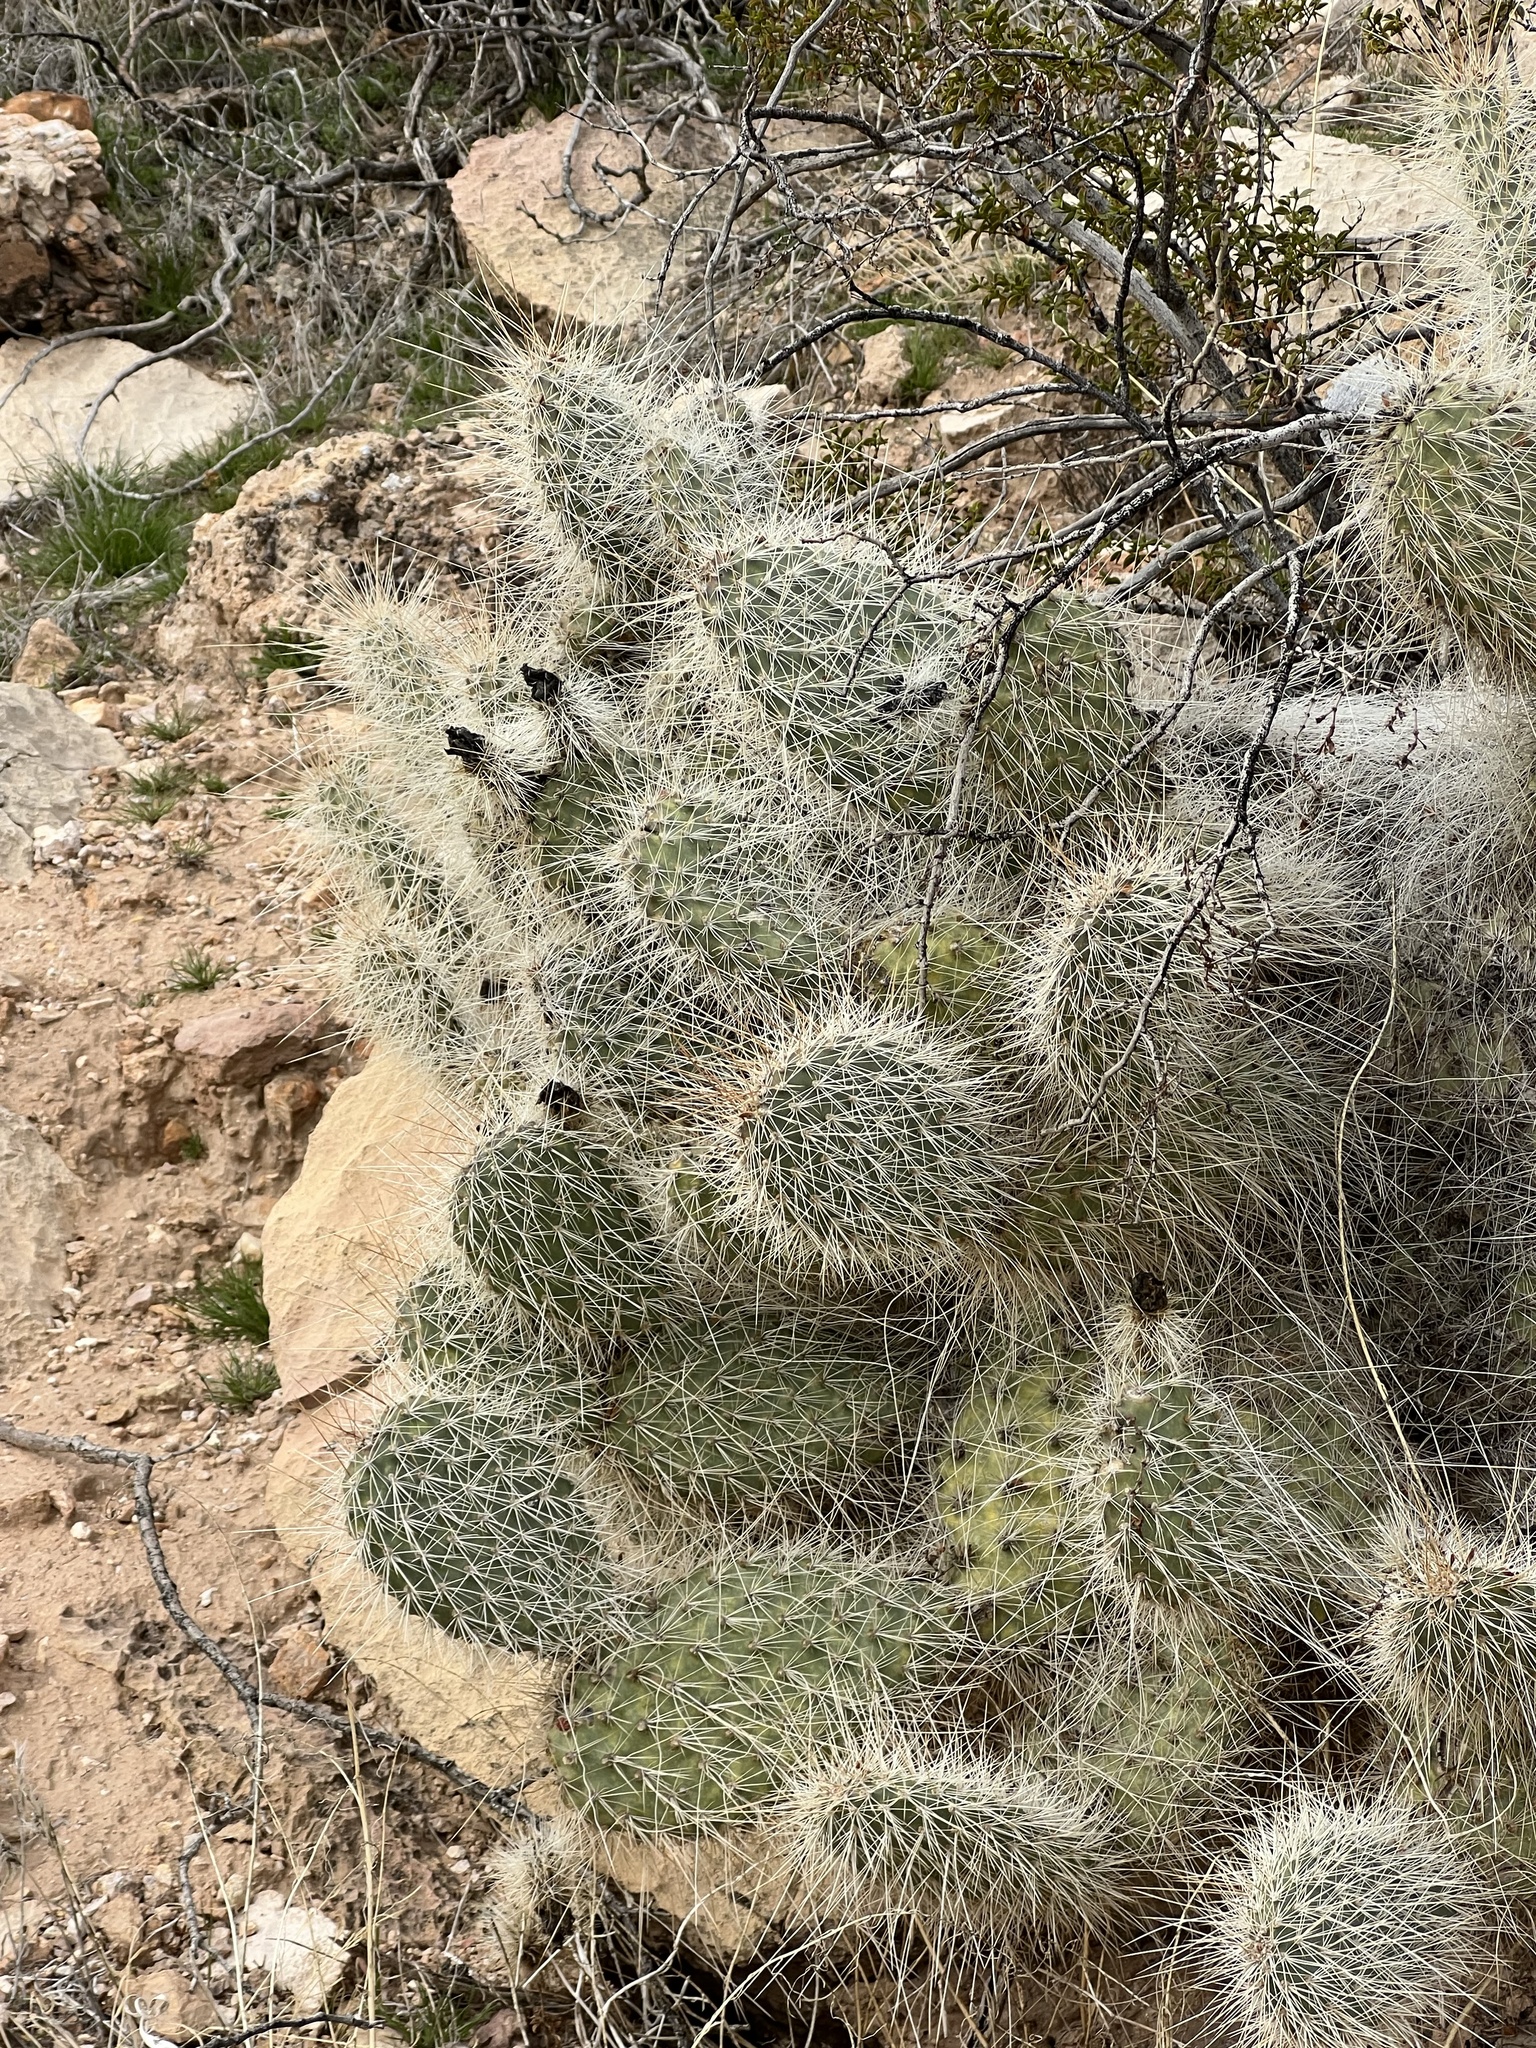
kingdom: Plantae
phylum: Tracheophyta
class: Magnoliopsida
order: Caryophyllales
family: Cactaceae
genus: Opuntia
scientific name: Opuntia polyacantha
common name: Plains prickly-pear
